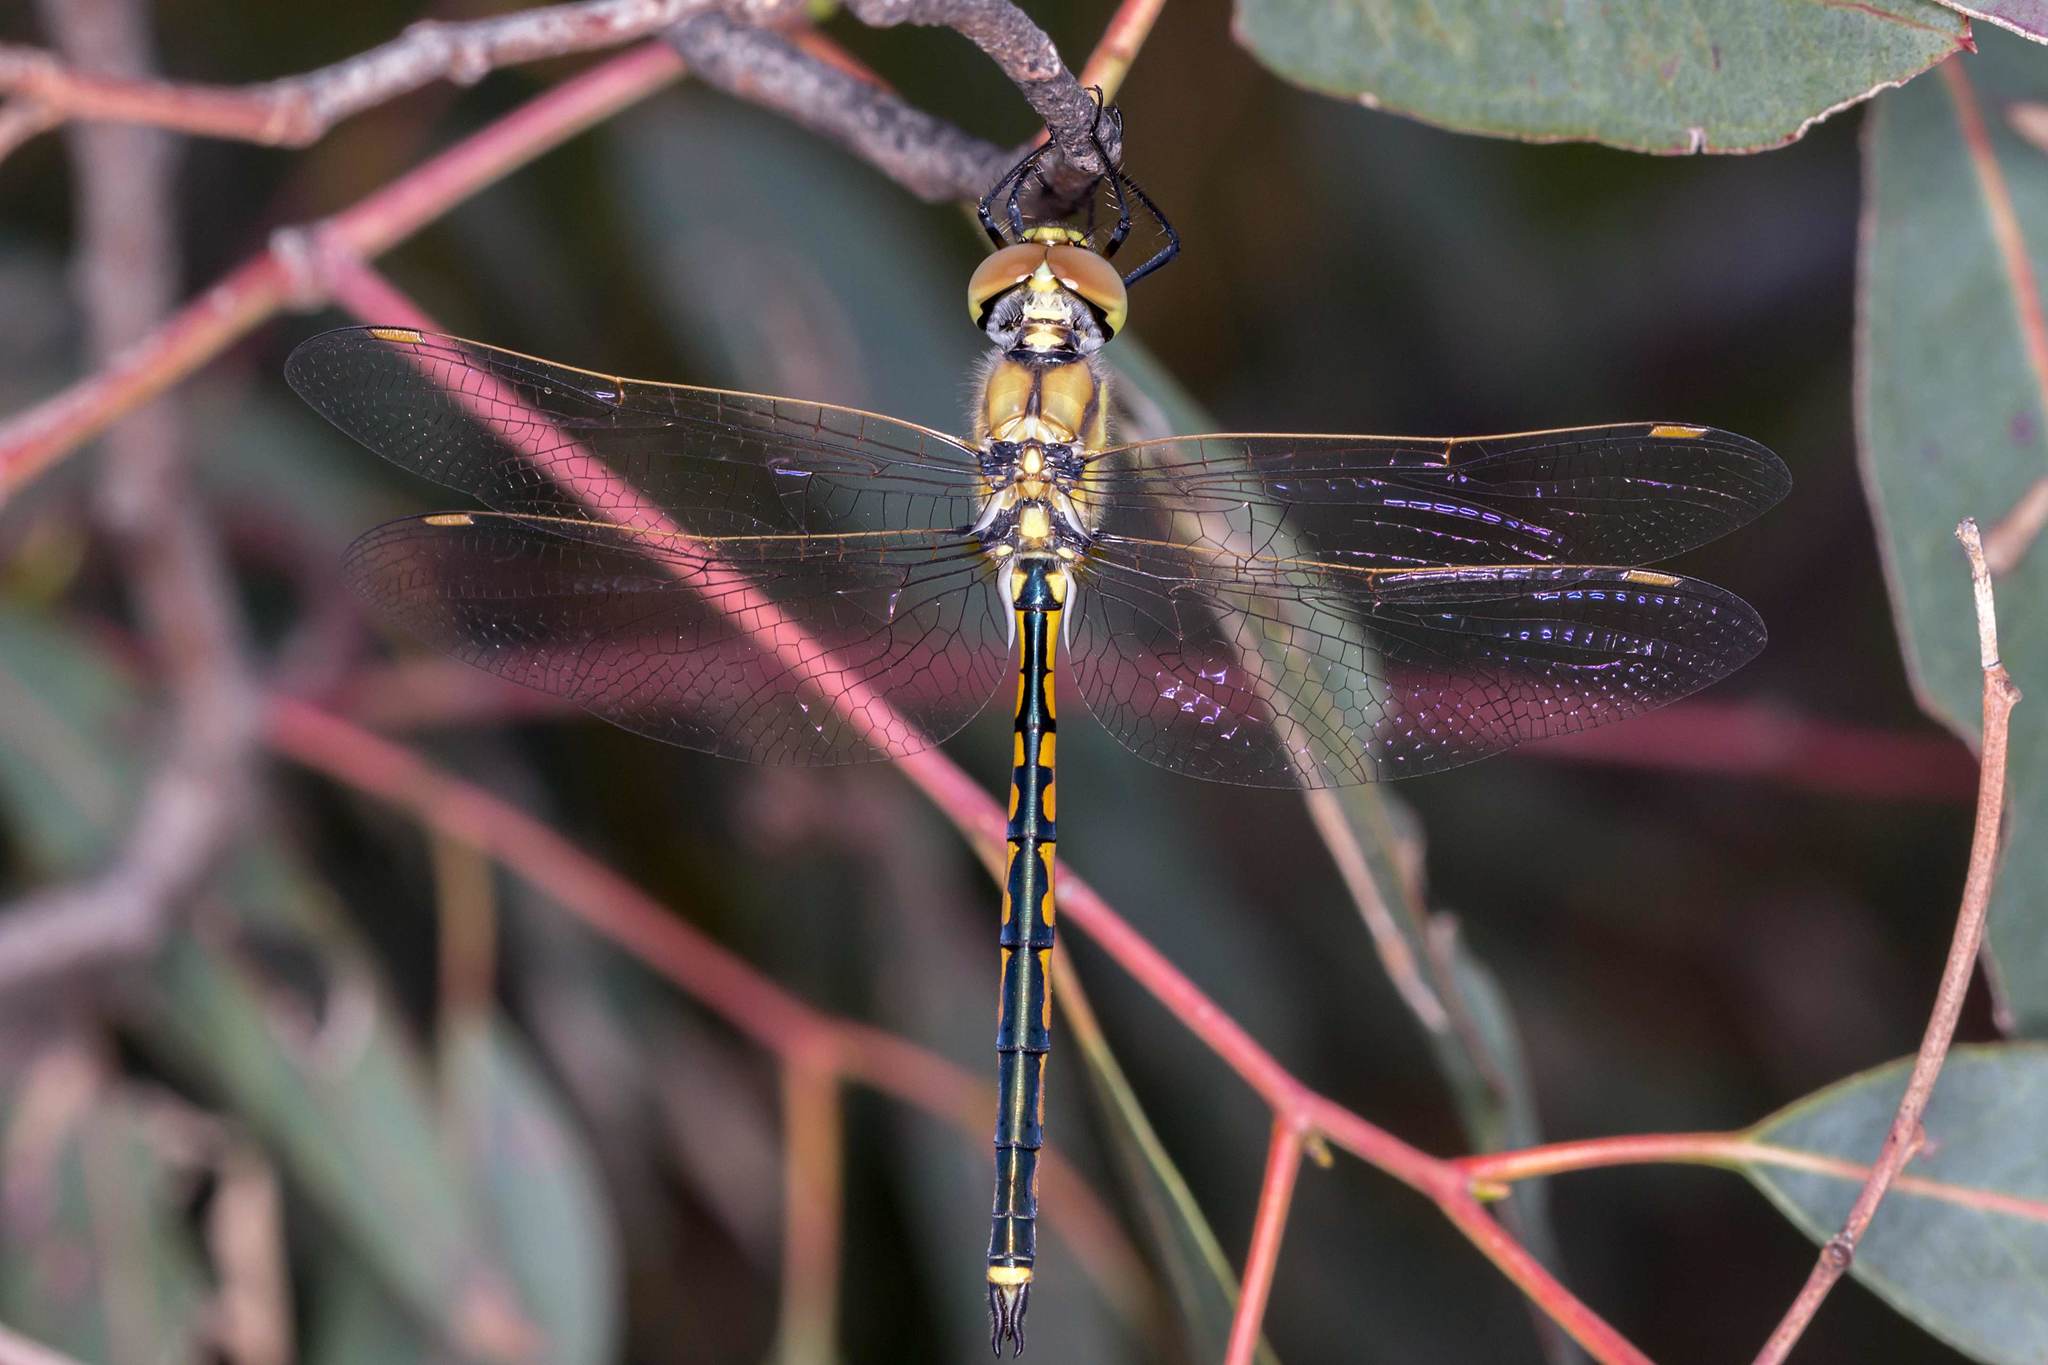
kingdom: Animalia
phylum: Arthropoda
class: Insecta
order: Odonata
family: Corduliidae
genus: Hemicordulia
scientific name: Hemicordulia tau
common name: Tau emerald
